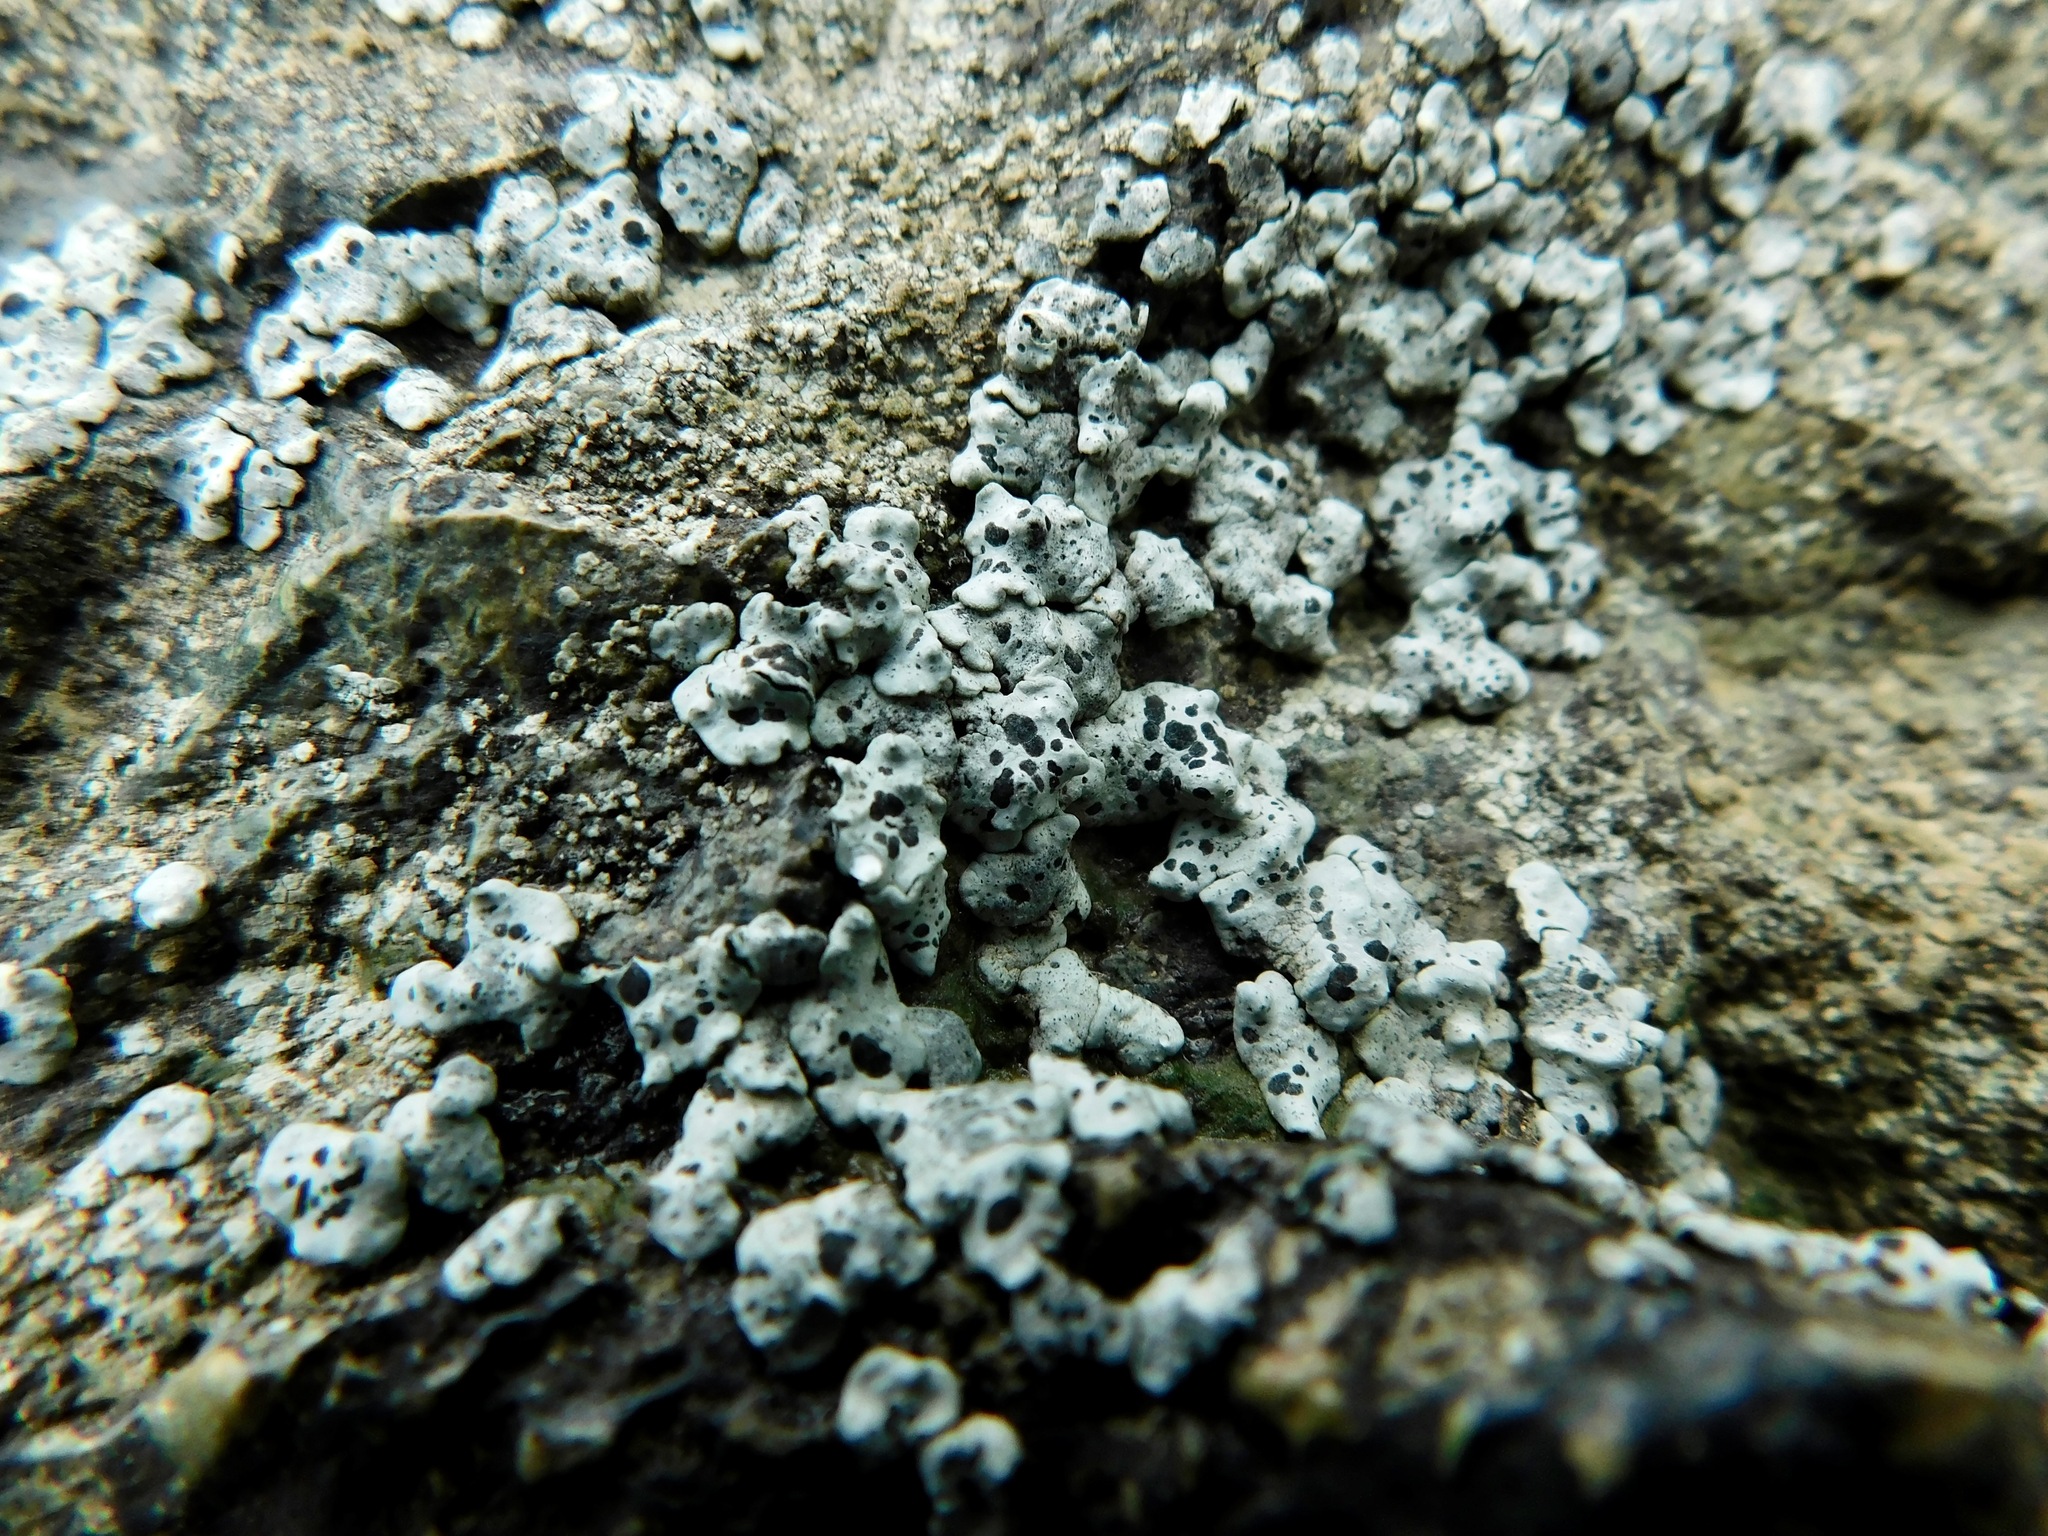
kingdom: Fungi
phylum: Ascomycota
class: Lecanoromycetes
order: Caliciales
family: Caliciaceae
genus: Dermiscellum
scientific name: Dermiscellum oulocheilum
